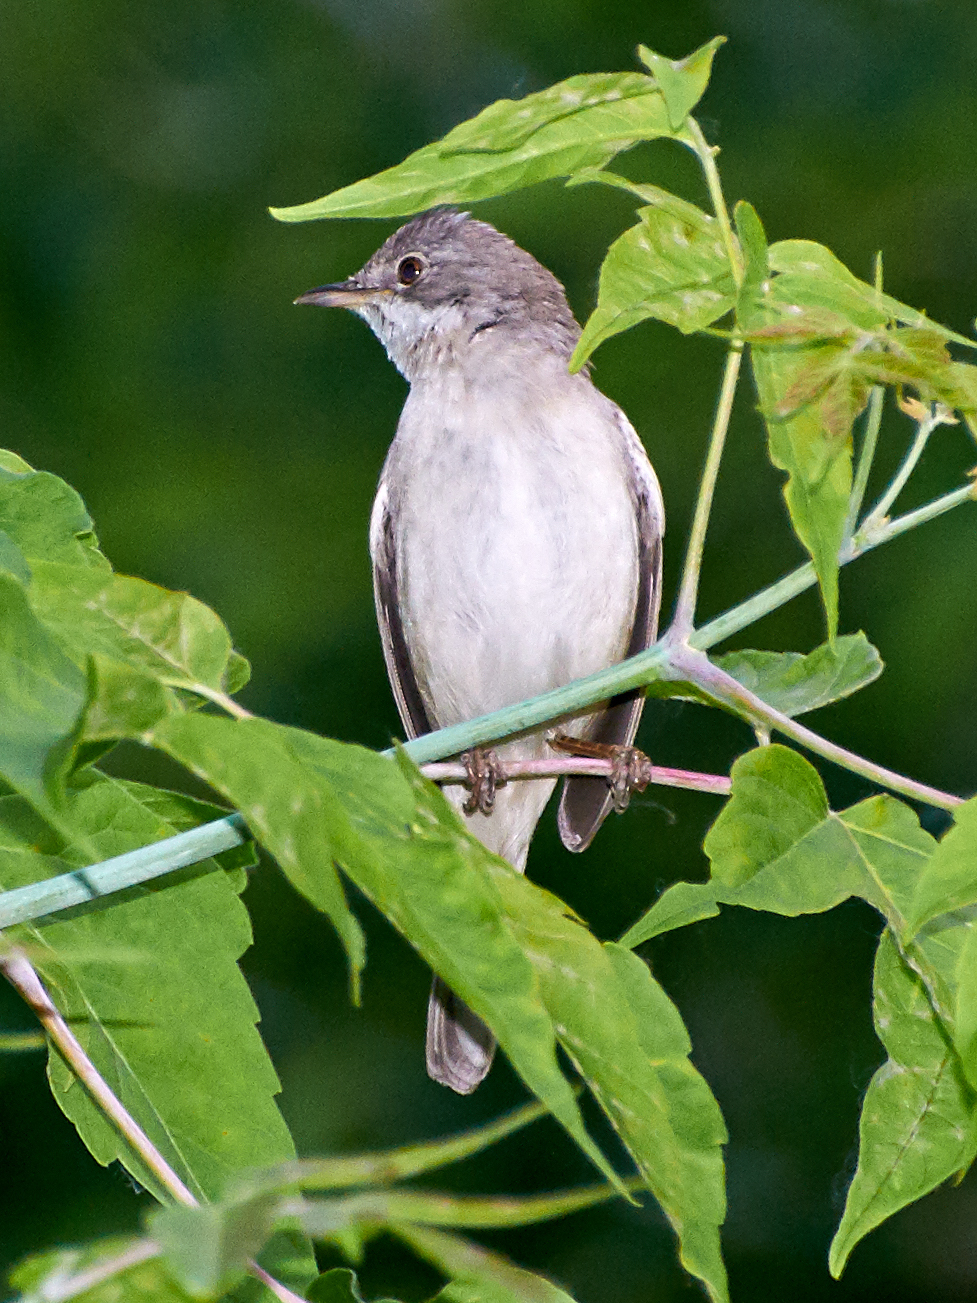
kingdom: Animalia
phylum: Chordata
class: Aves
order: Passeriformes
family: Sylviidae
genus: Sylvia
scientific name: Sylvia communis
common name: Common whitethroat
